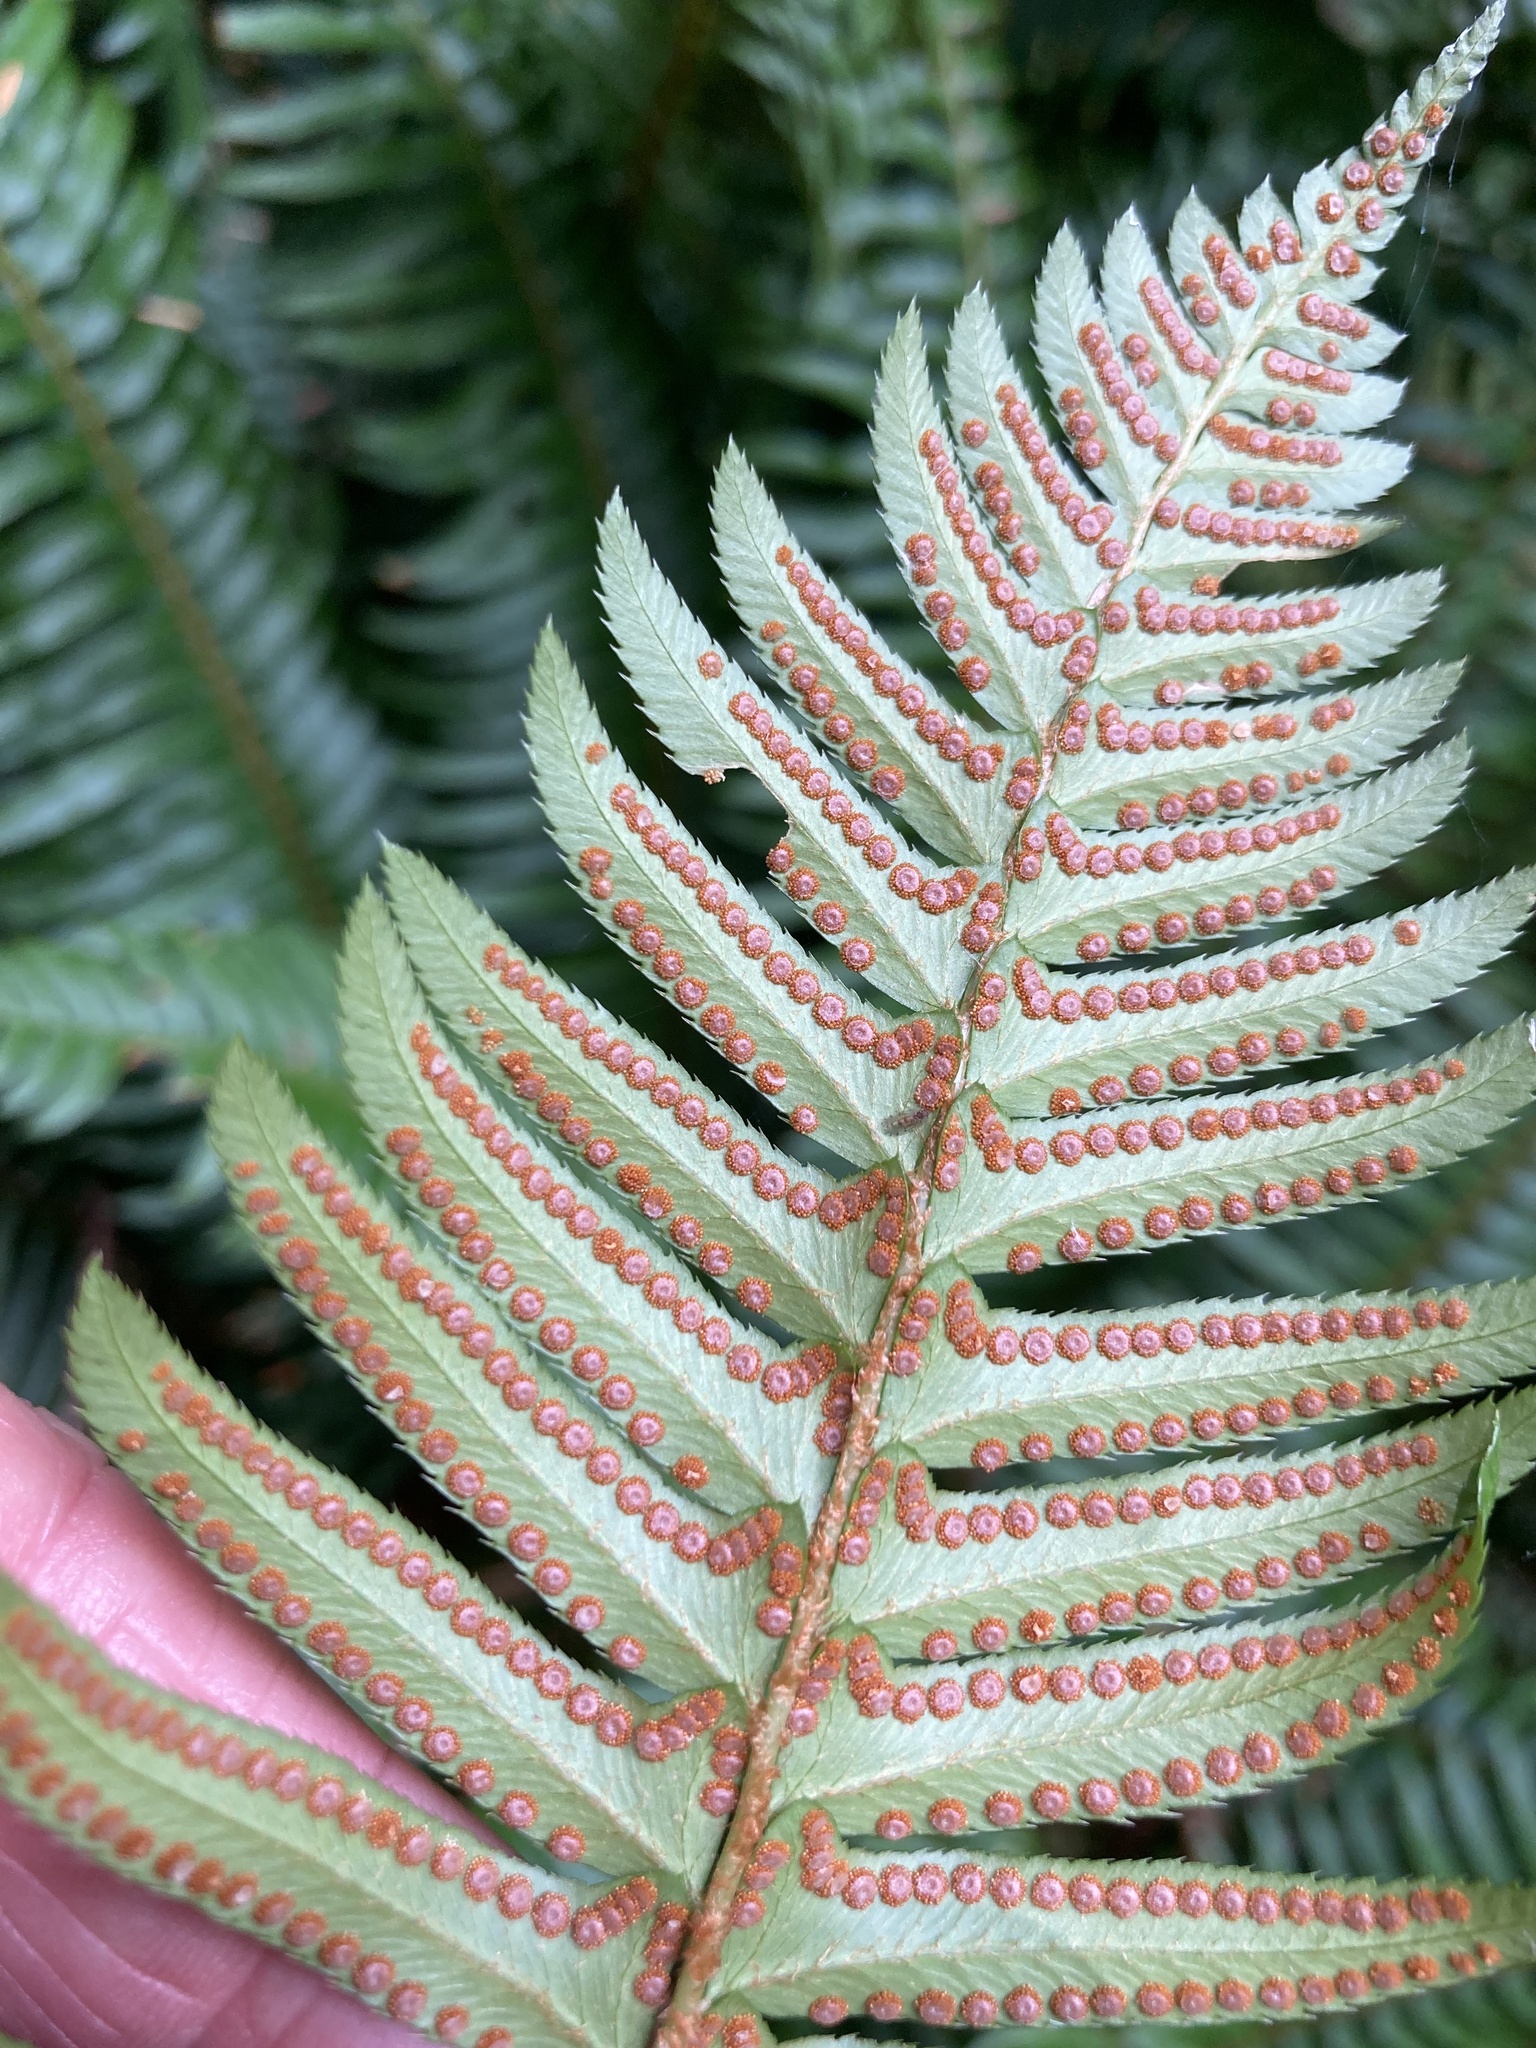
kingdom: Plantae
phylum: Tracheophyta
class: Polypodiopsida
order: Polypodiales
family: Dryopteridaceae
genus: Polystichum
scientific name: Polystichum munitum
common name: Western sword-fern
